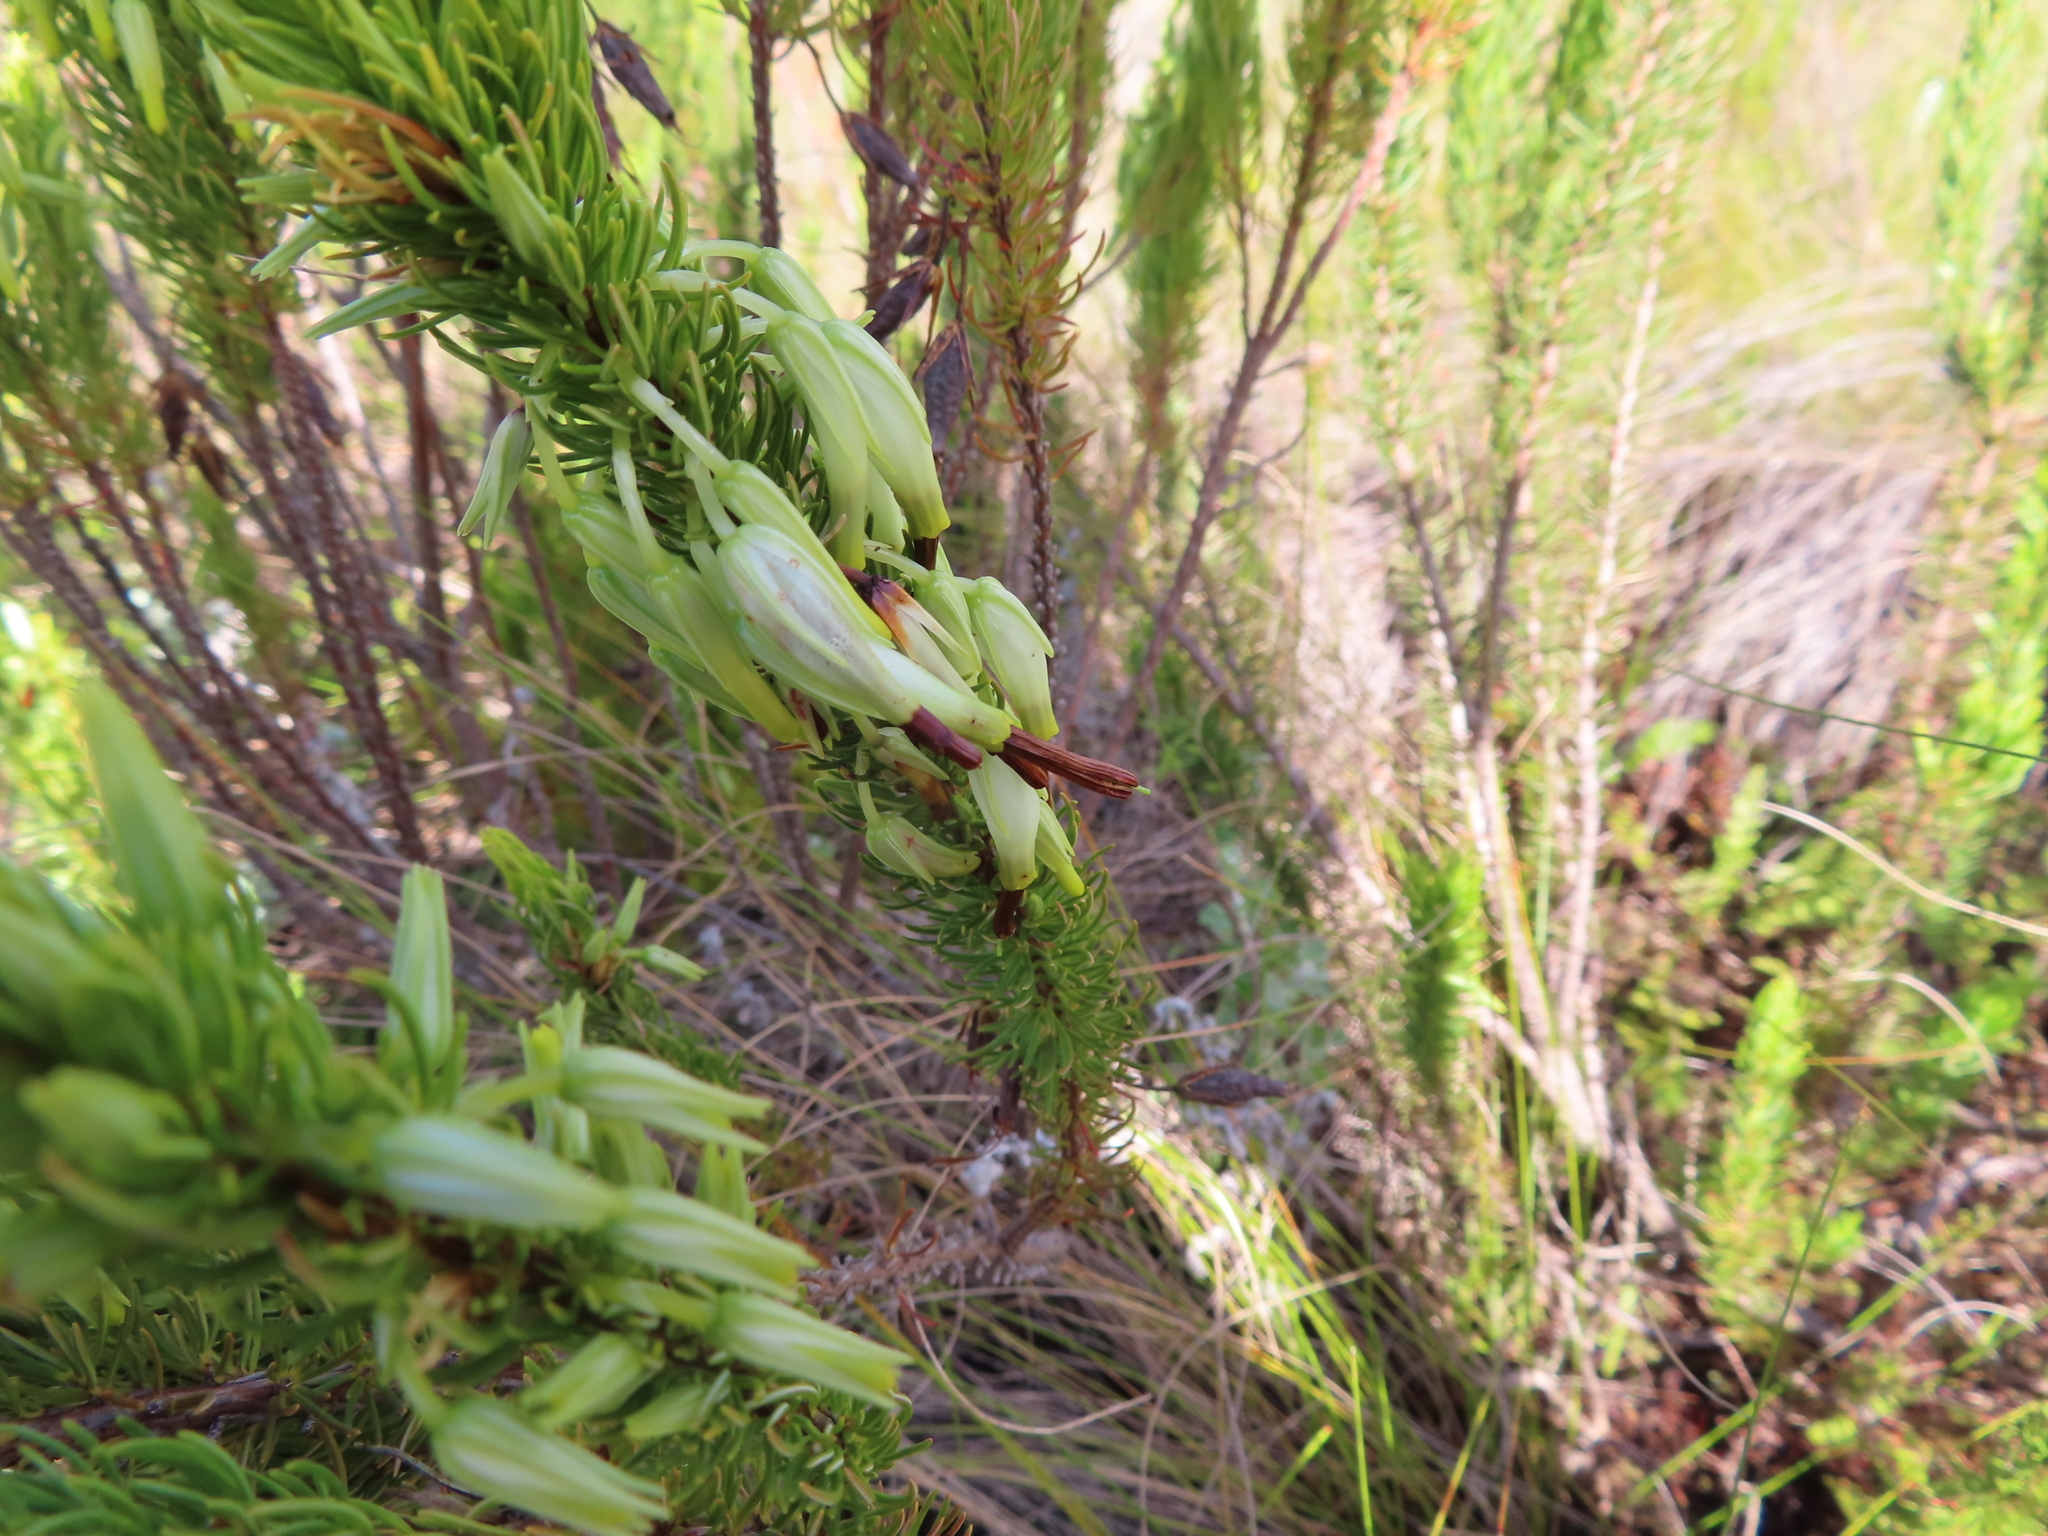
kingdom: Plantae
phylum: Tracheophyta
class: Magnoliopsida
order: Ericales
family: Ericaceae
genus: Erica
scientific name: Erica plukenetii
